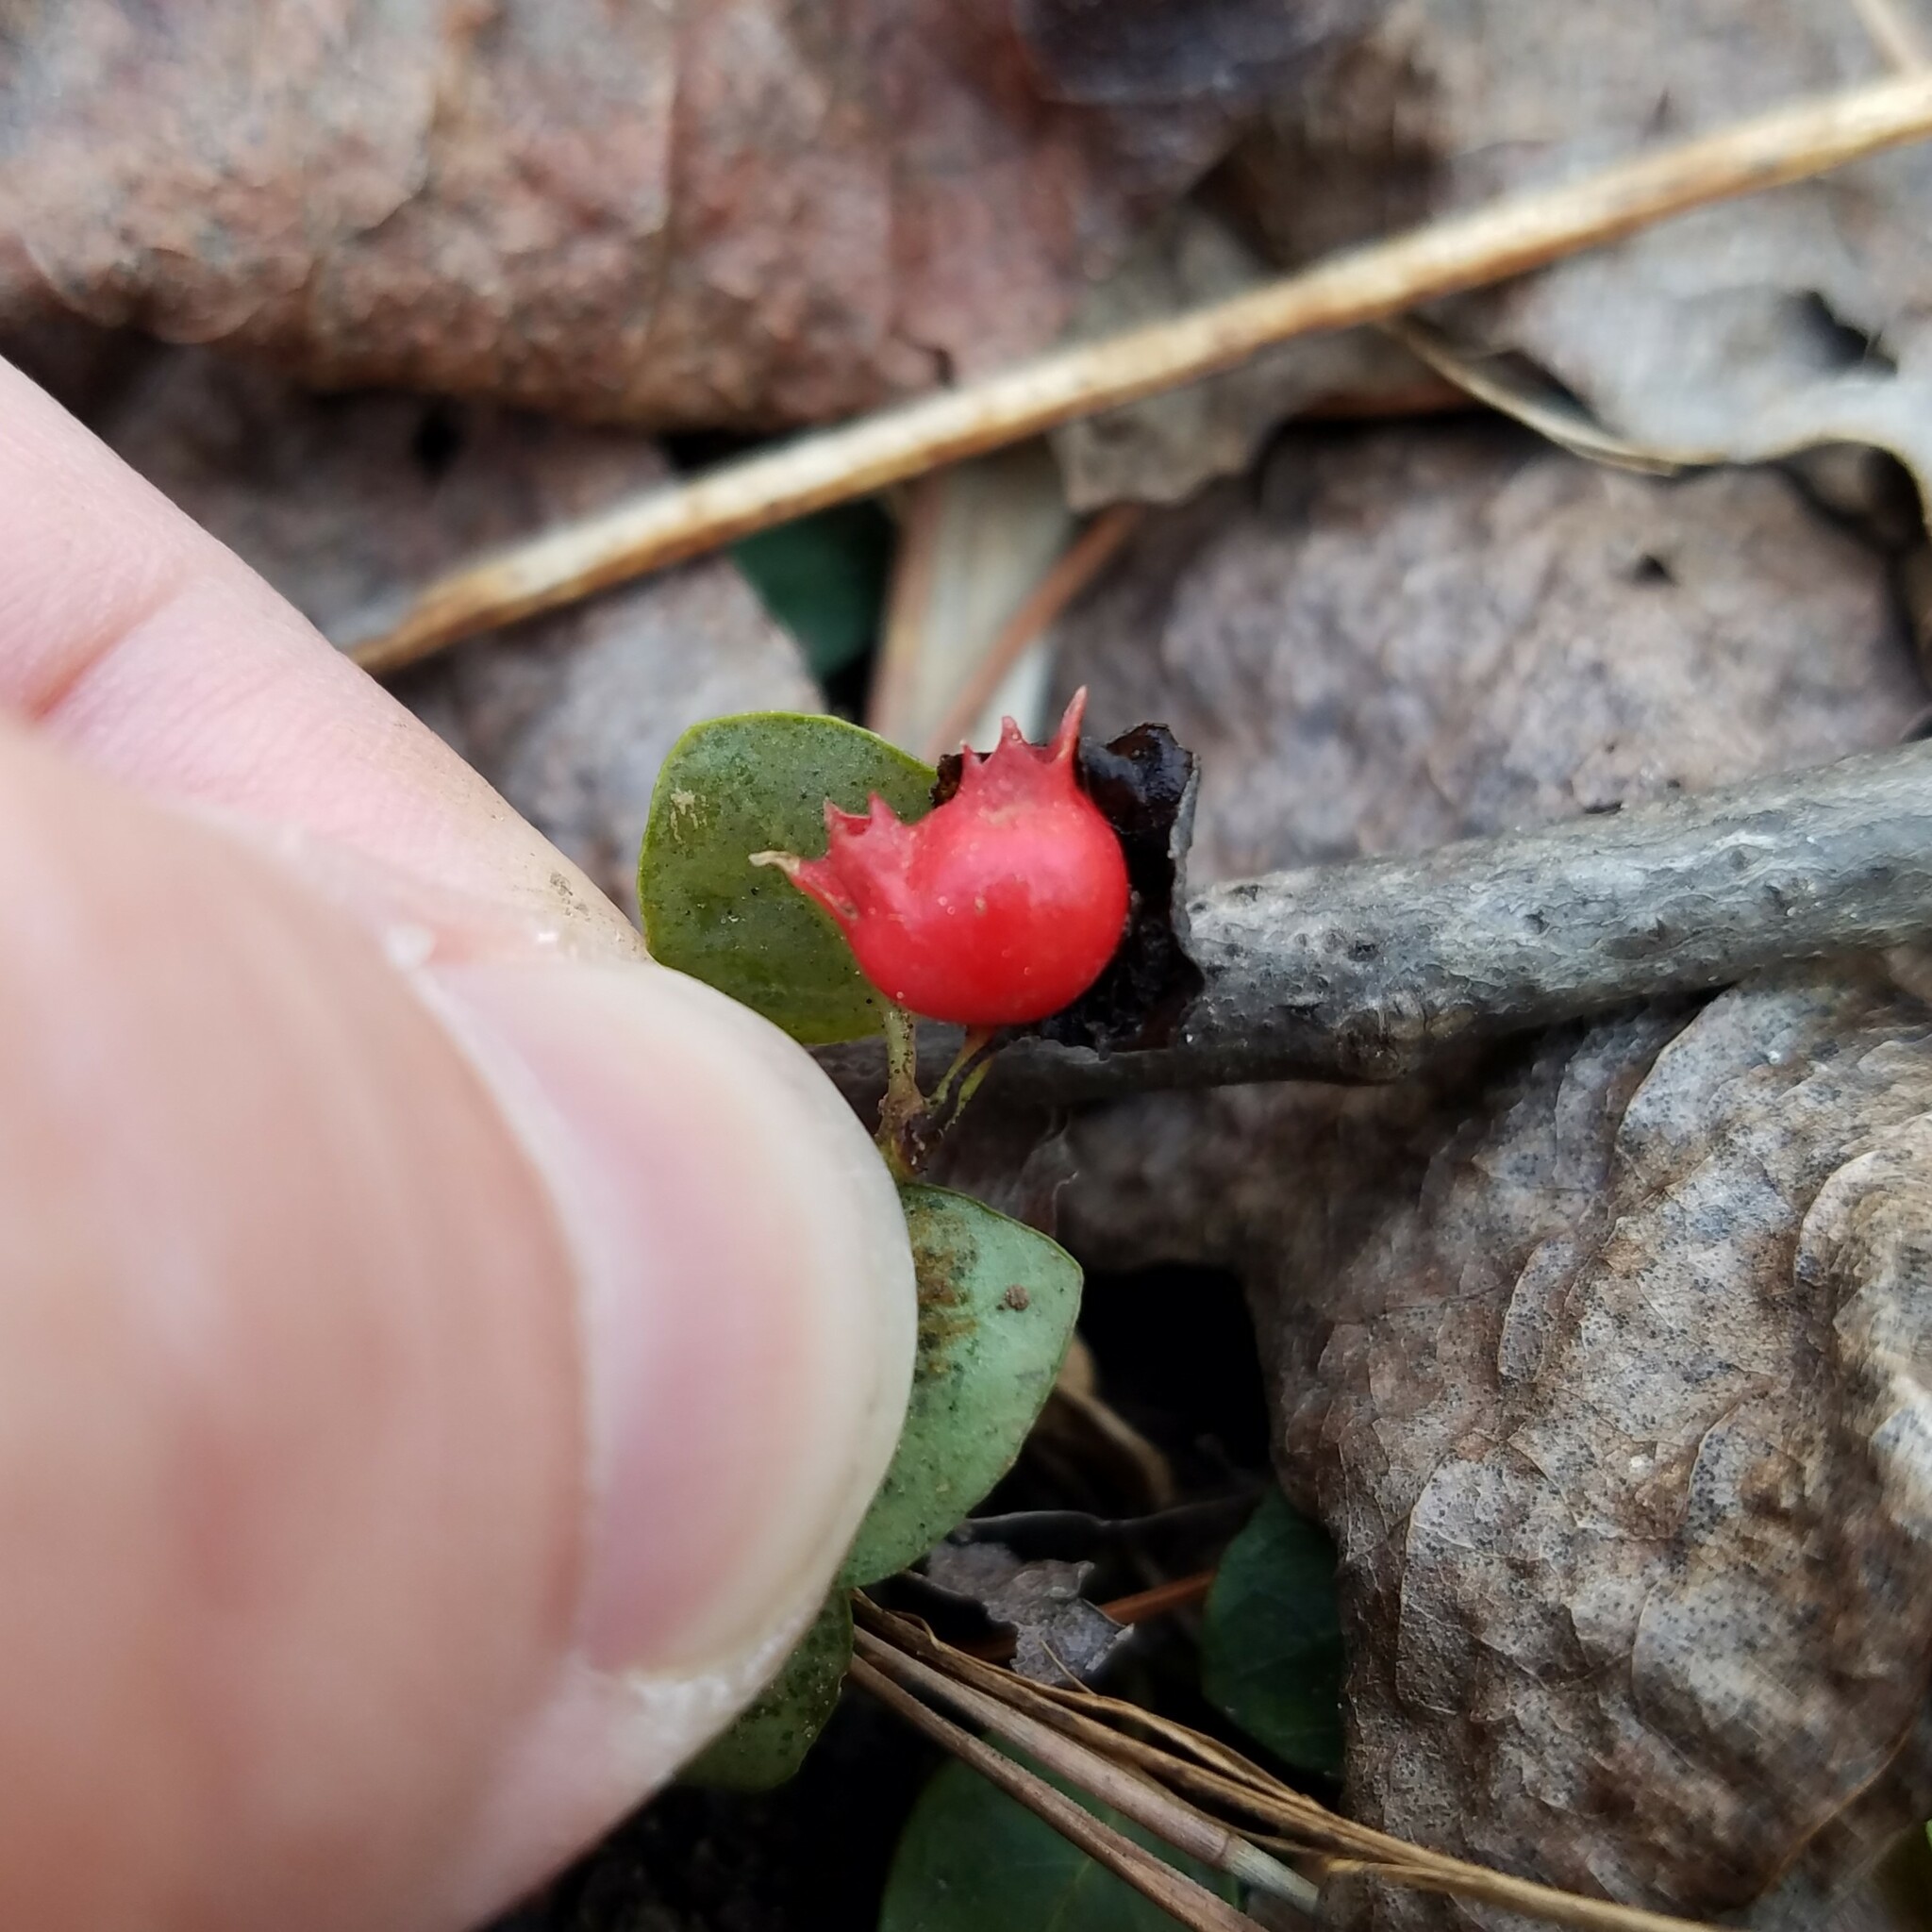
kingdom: Plantae
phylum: Tracheophyta
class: Magnoliopsida
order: Gentianales
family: Rubiaceae
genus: Mitchella
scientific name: Mitchella repens
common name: Partridge-berry
